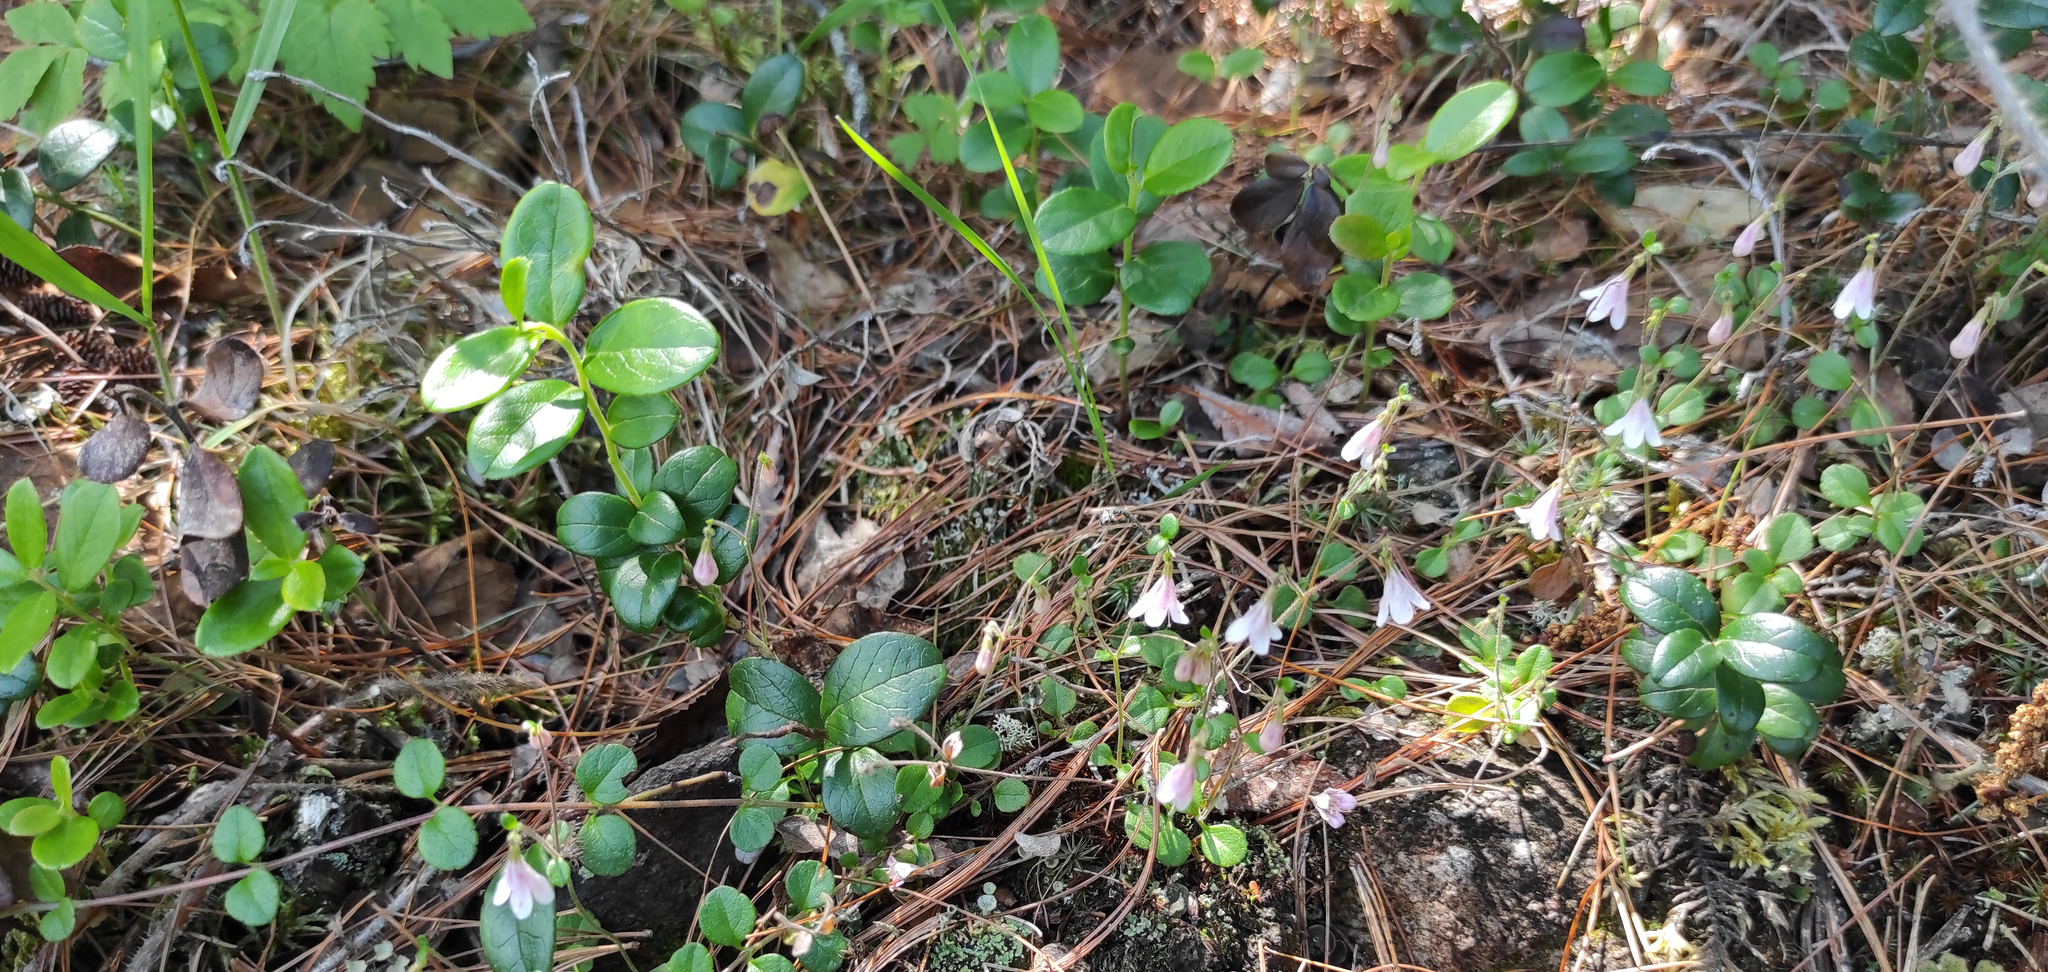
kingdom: Plantae
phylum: Tracheophyta
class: Magnoliopsida
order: Dipsacales
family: Caprifoliaceae
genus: Linnaea
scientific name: Linnaea borealis
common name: Twinflower
